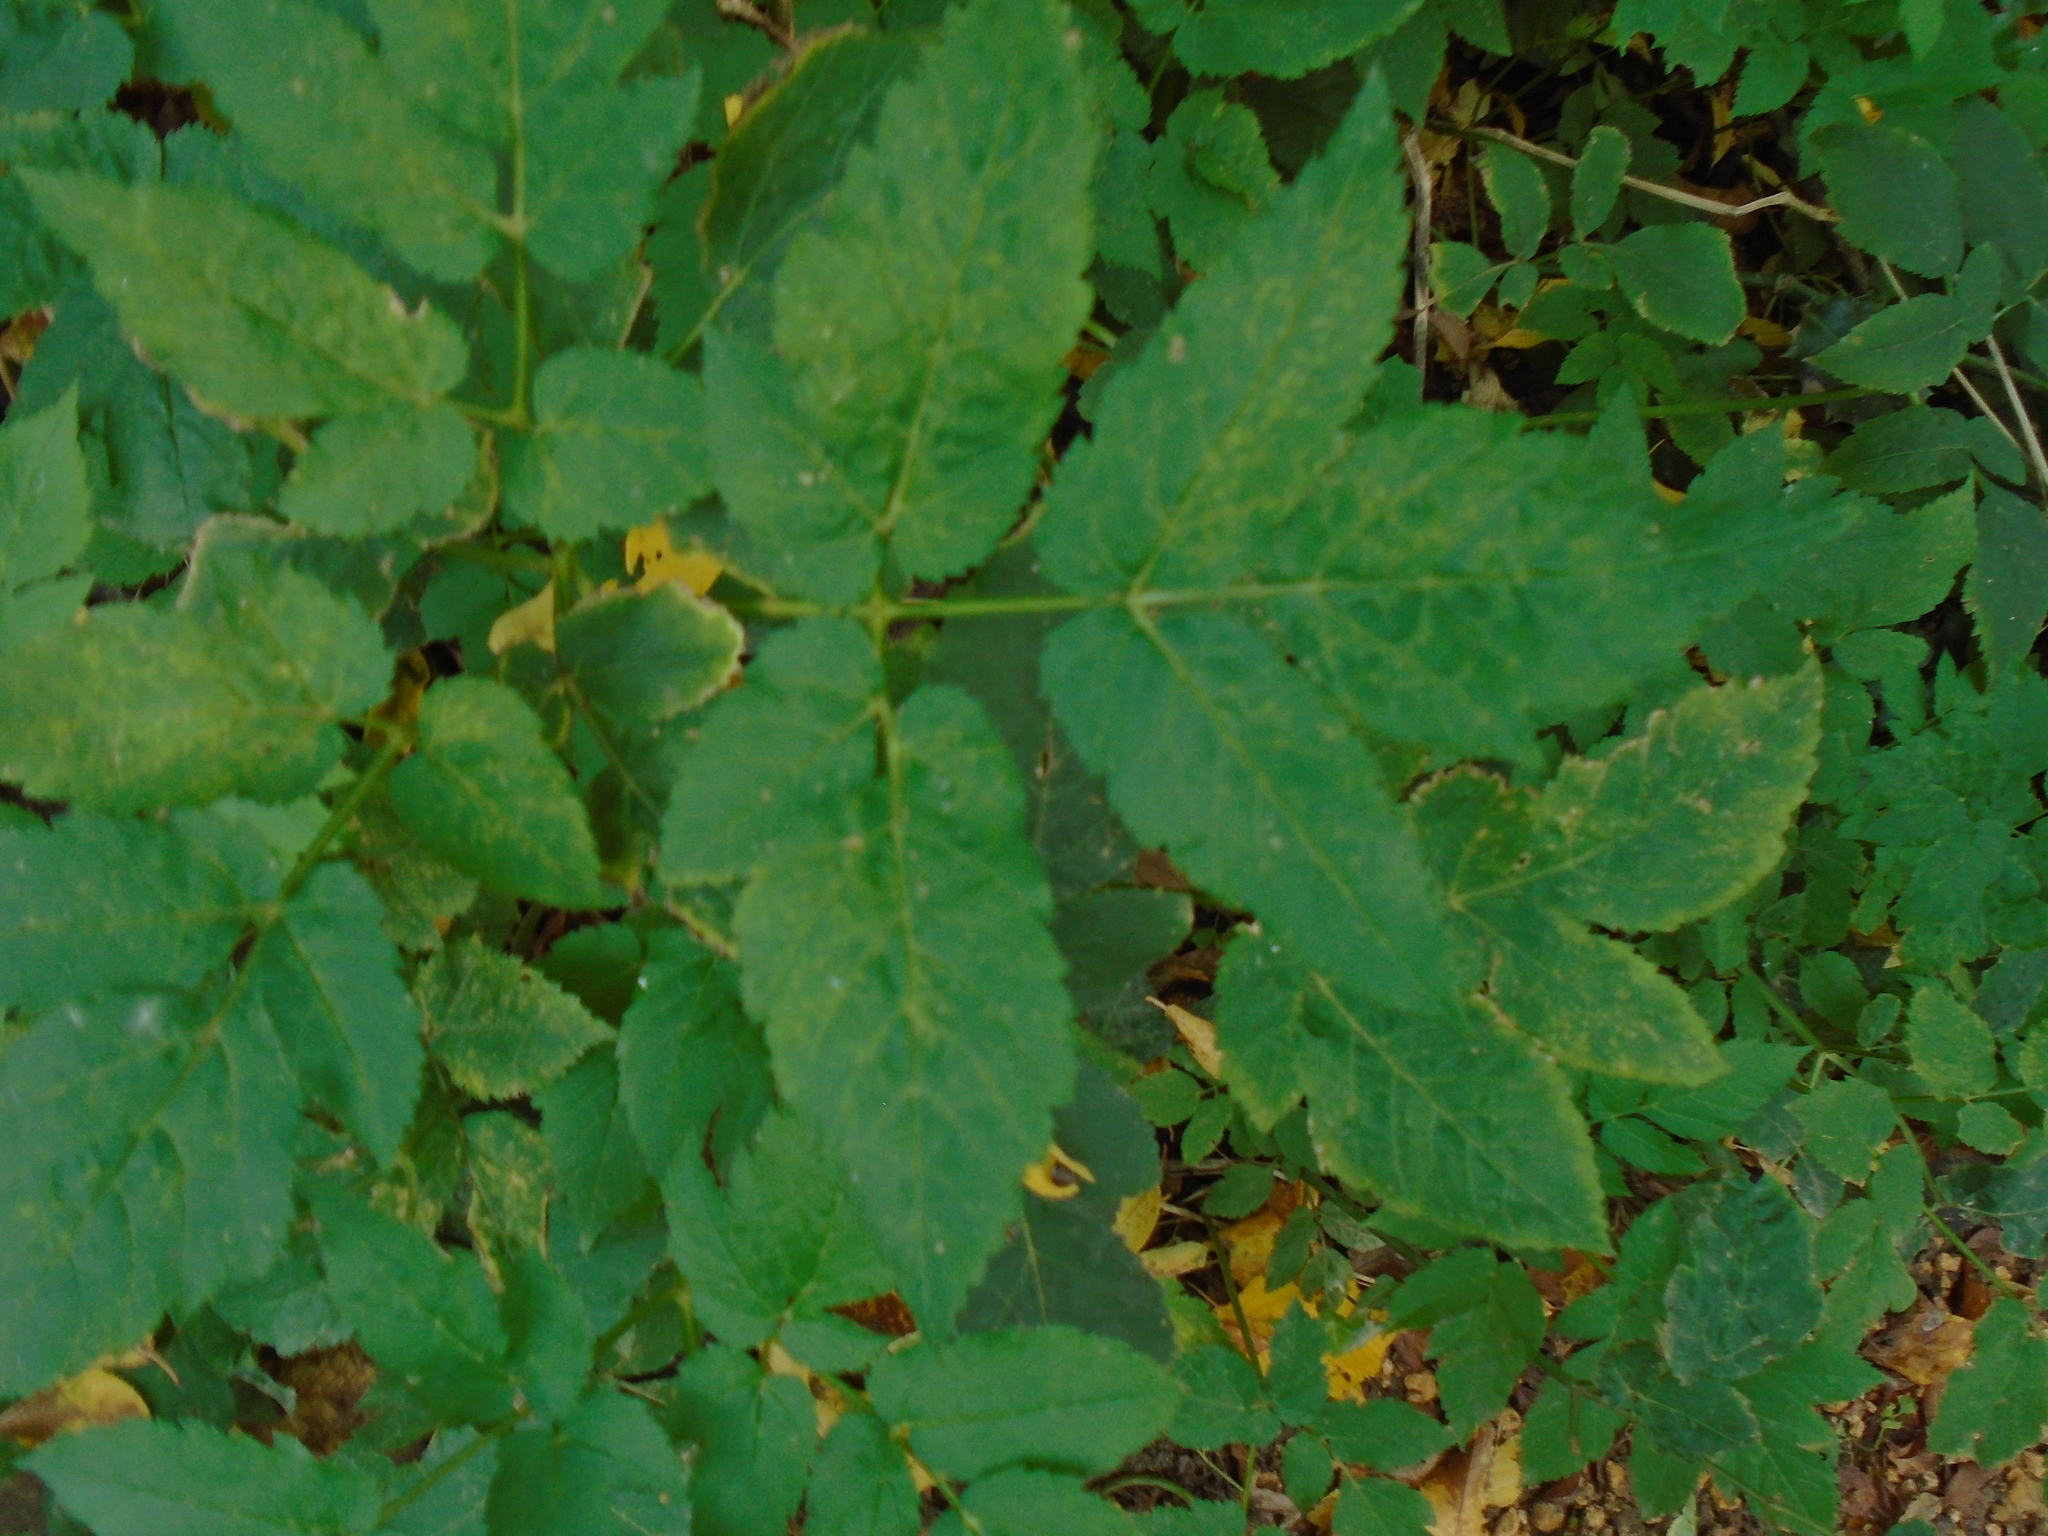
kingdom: Plantae
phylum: Tracheophyta
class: Magnoliopsida
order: Apiales
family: Apiaceae
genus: Aegopodium
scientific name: Aegopodium podagraria
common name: Ground-elder
